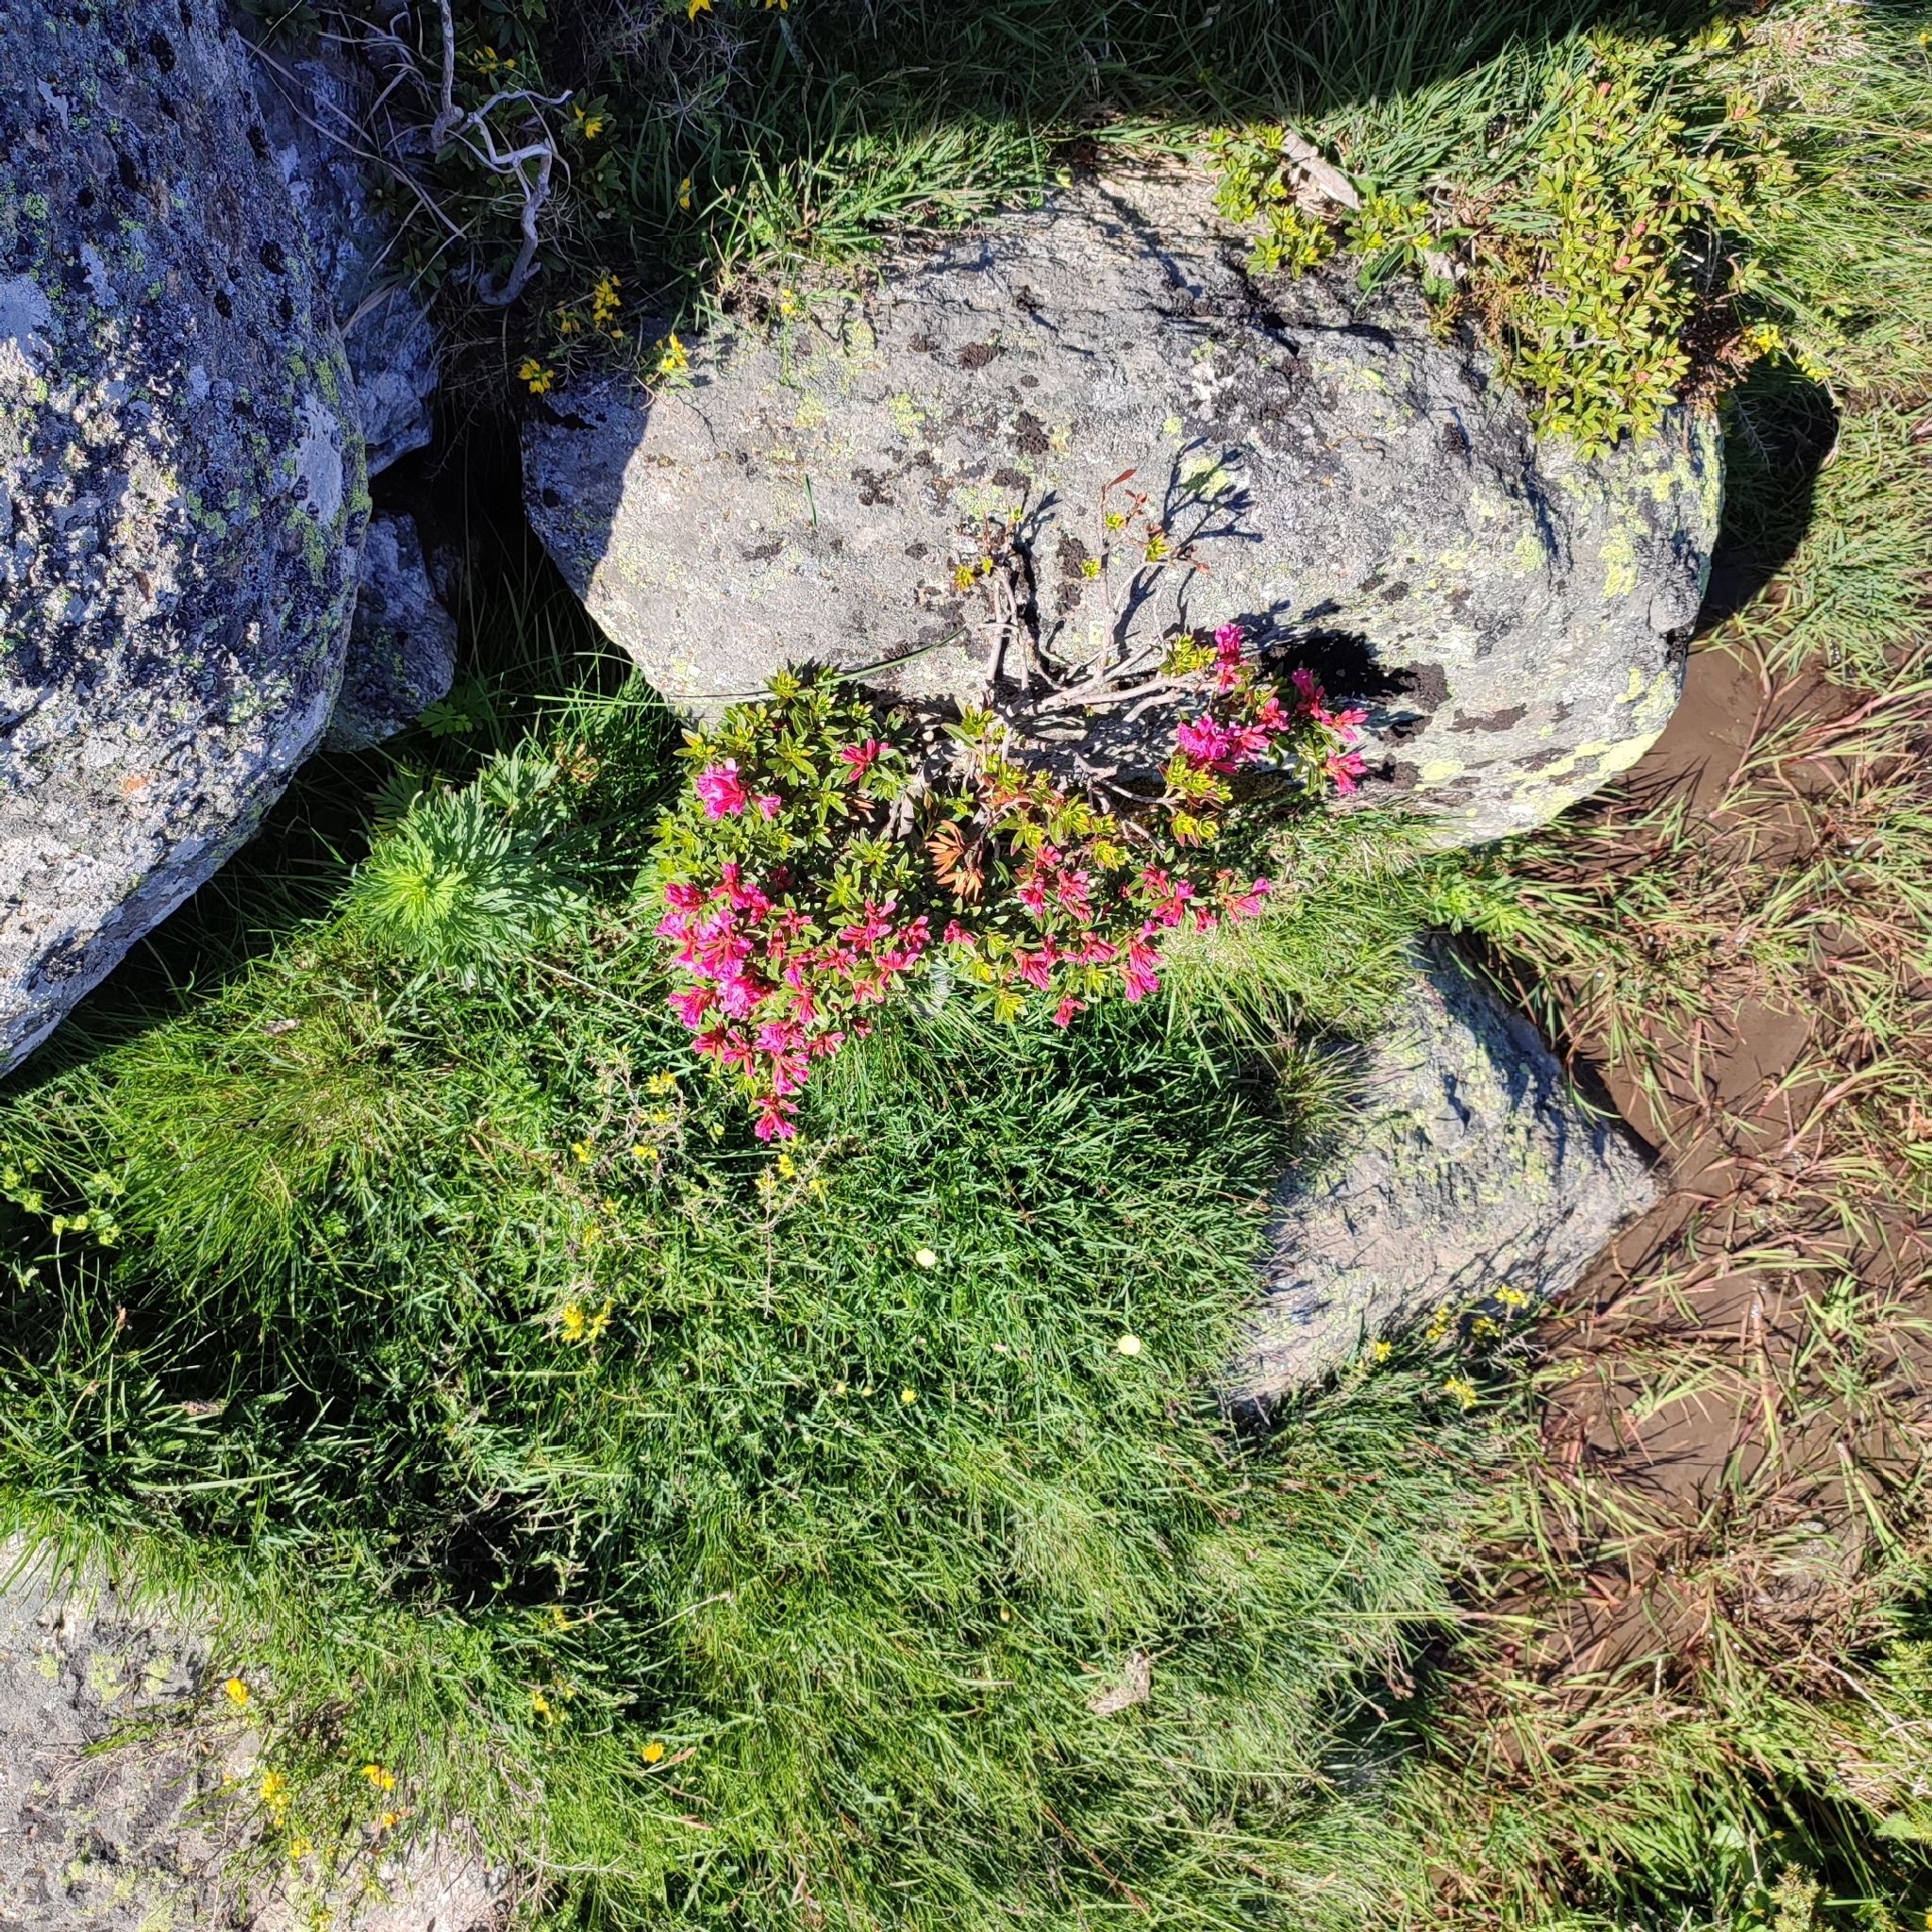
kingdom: Plantae
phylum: Tracheophyta
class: Magnoliopsida
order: Ericales
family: Ericaceae
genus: Rhododendron
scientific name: Rhododendron ferrugineum
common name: Alpenrose
